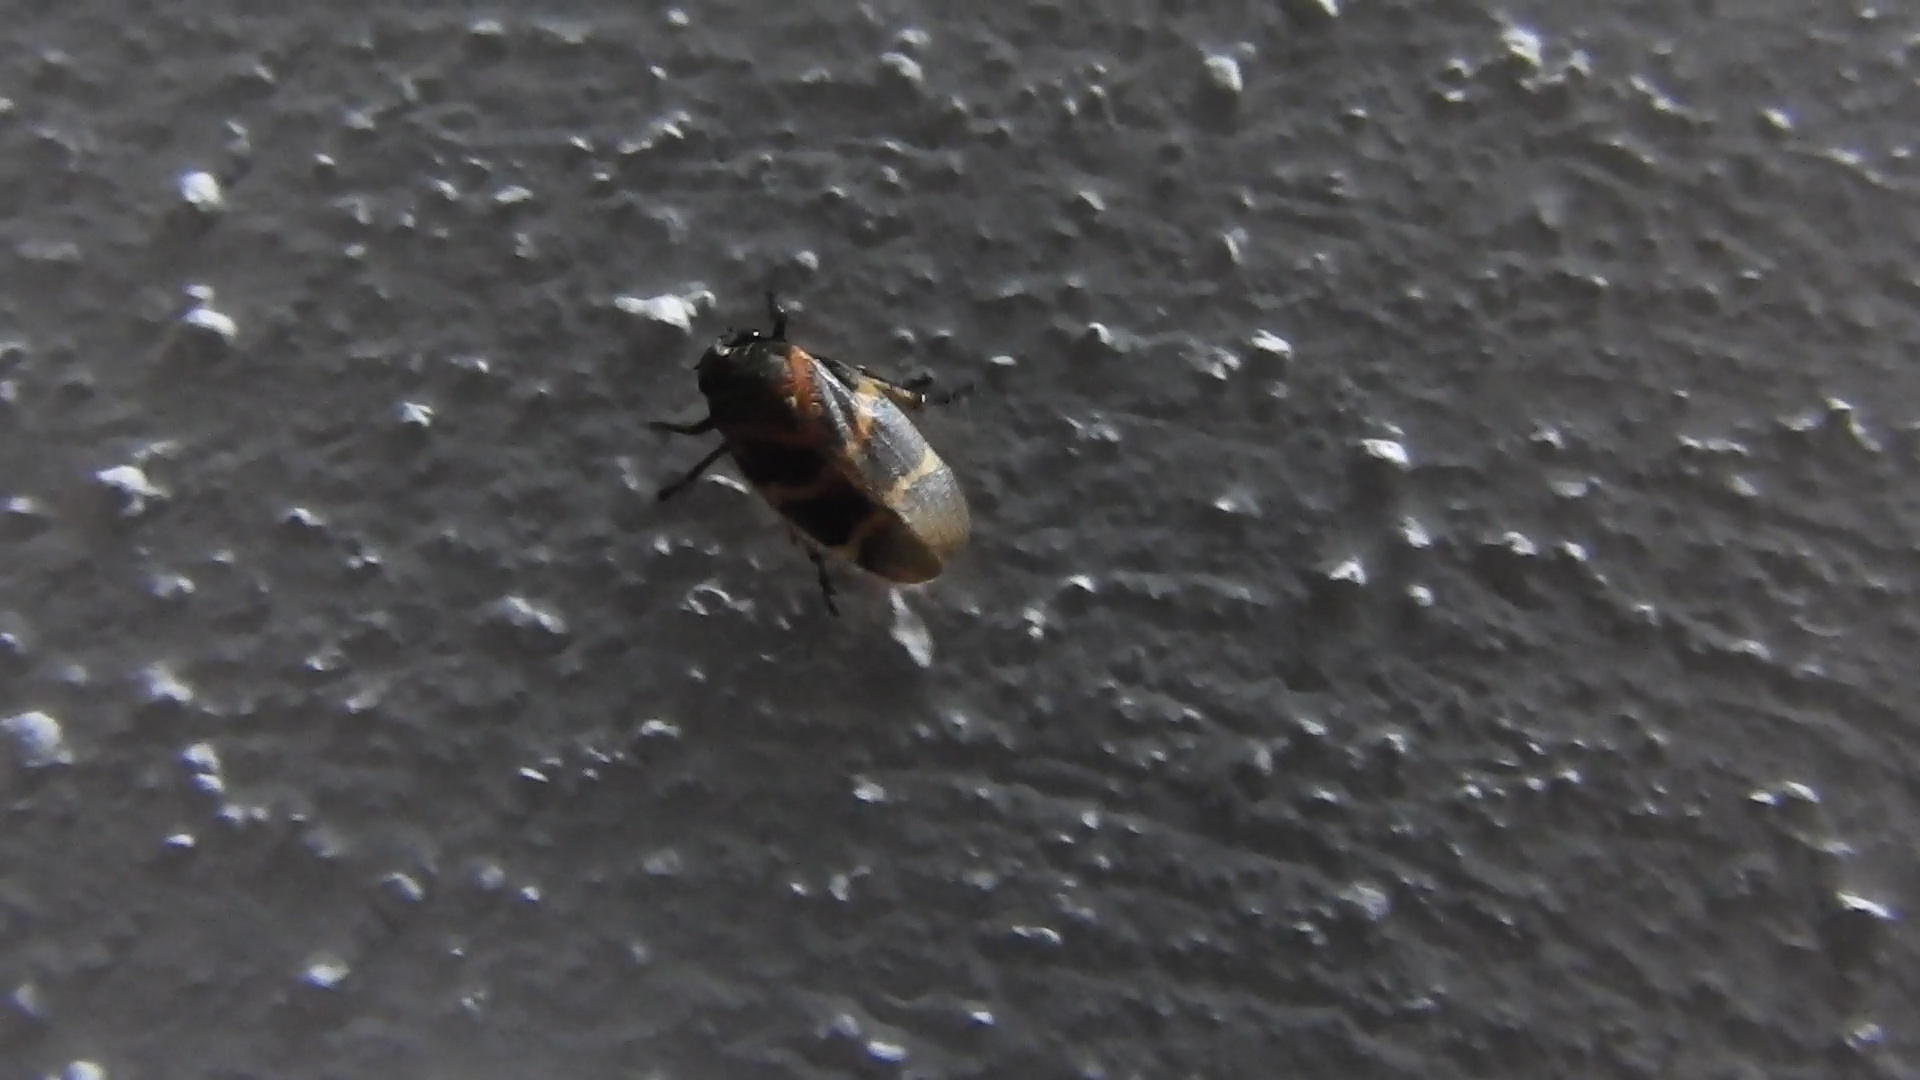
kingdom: Animalia
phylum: Arthropoda
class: Insecta
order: Hemiptera
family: Cercopidae
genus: Aeneolamia
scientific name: Aeneolamia contigua
